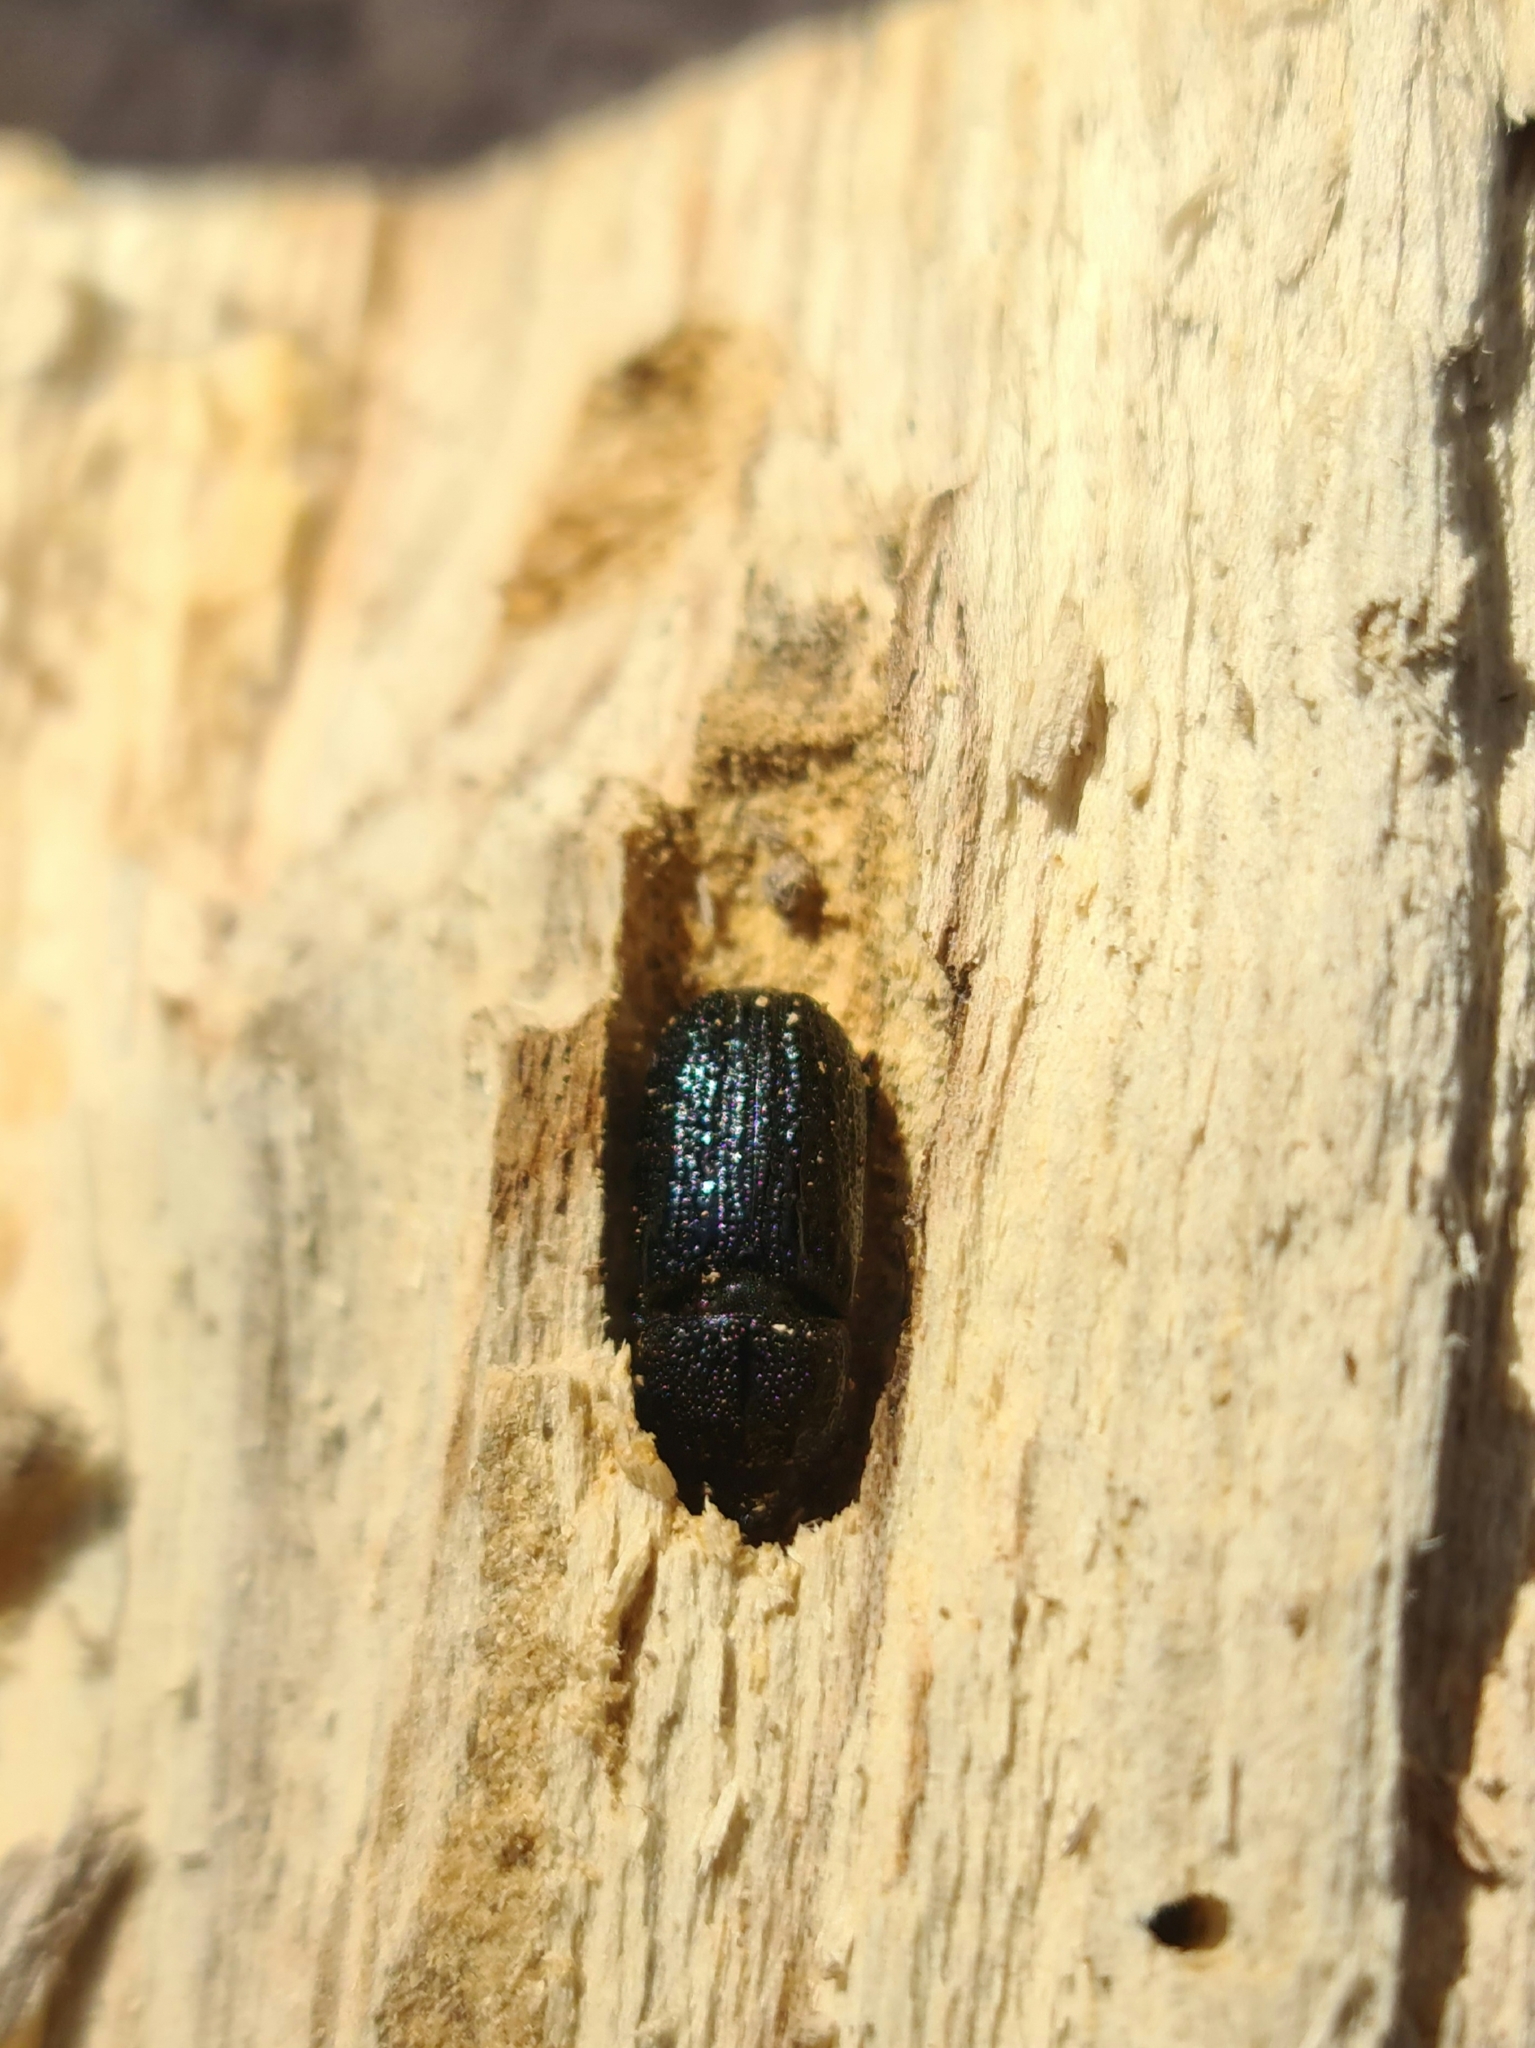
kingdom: Animalia
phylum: Arthropoda
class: Insecta
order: Coleoptera
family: Lucanidae
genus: Sinodendron
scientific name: Sinodendron cylindricum
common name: Rhinoceros beetle
